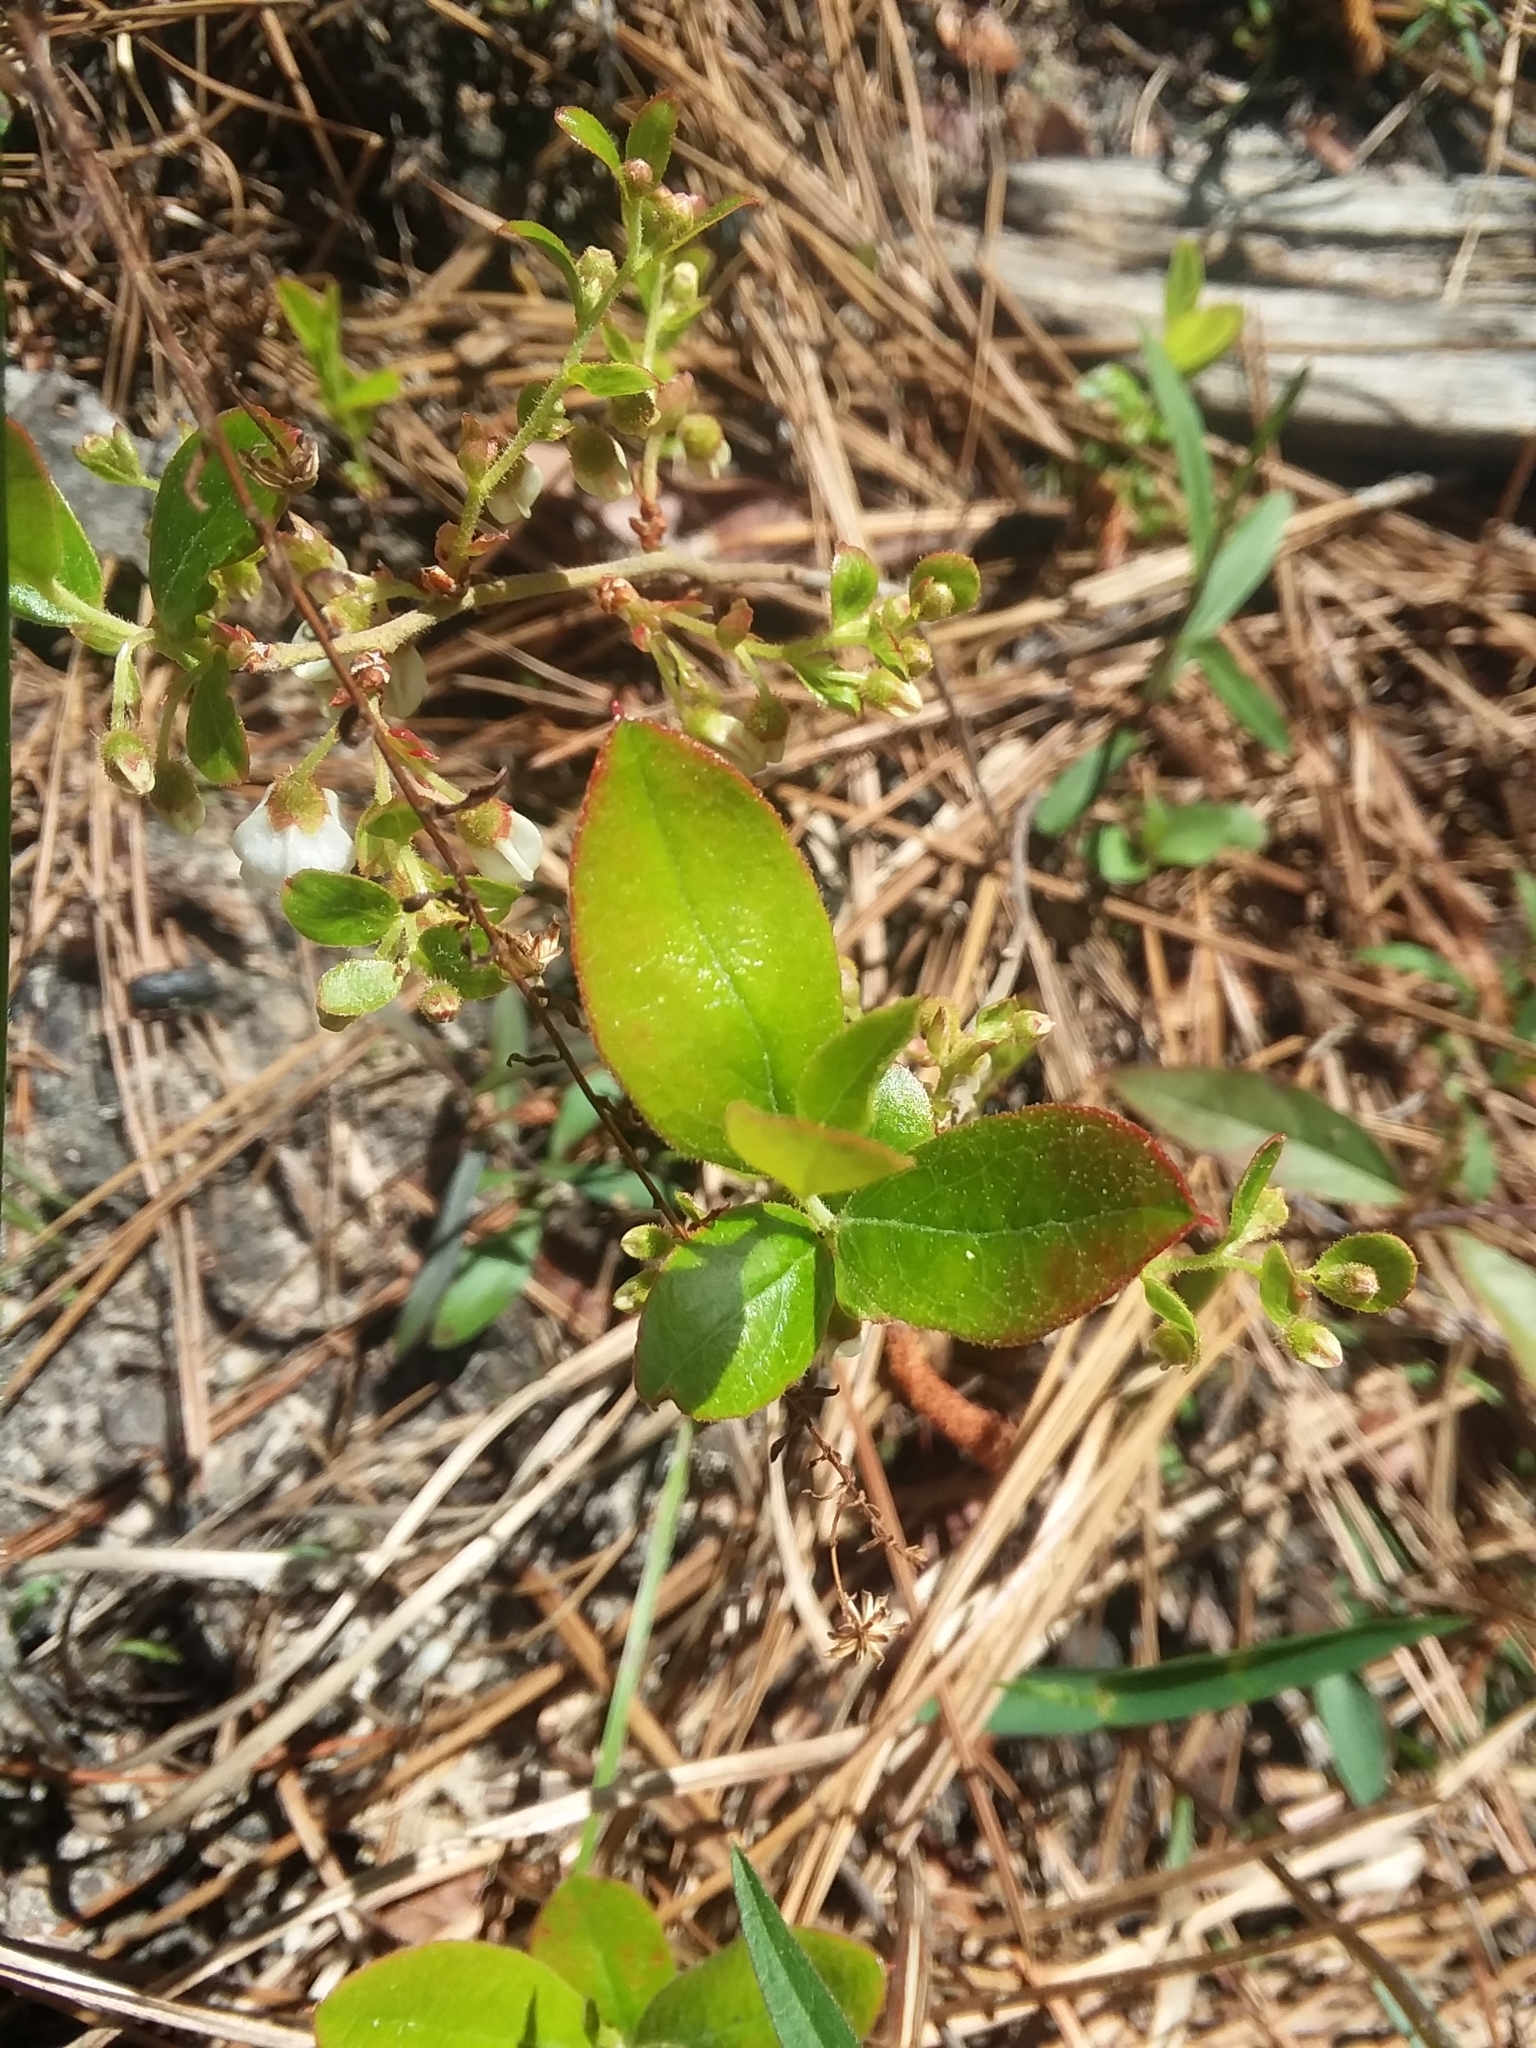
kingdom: Plantae
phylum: Tracheophyta
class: Magnoliopsida
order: Ericales
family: Ericaceae
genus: Gaylussacia
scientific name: Gaylussacia dumosa
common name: Dwarf huckleberry
